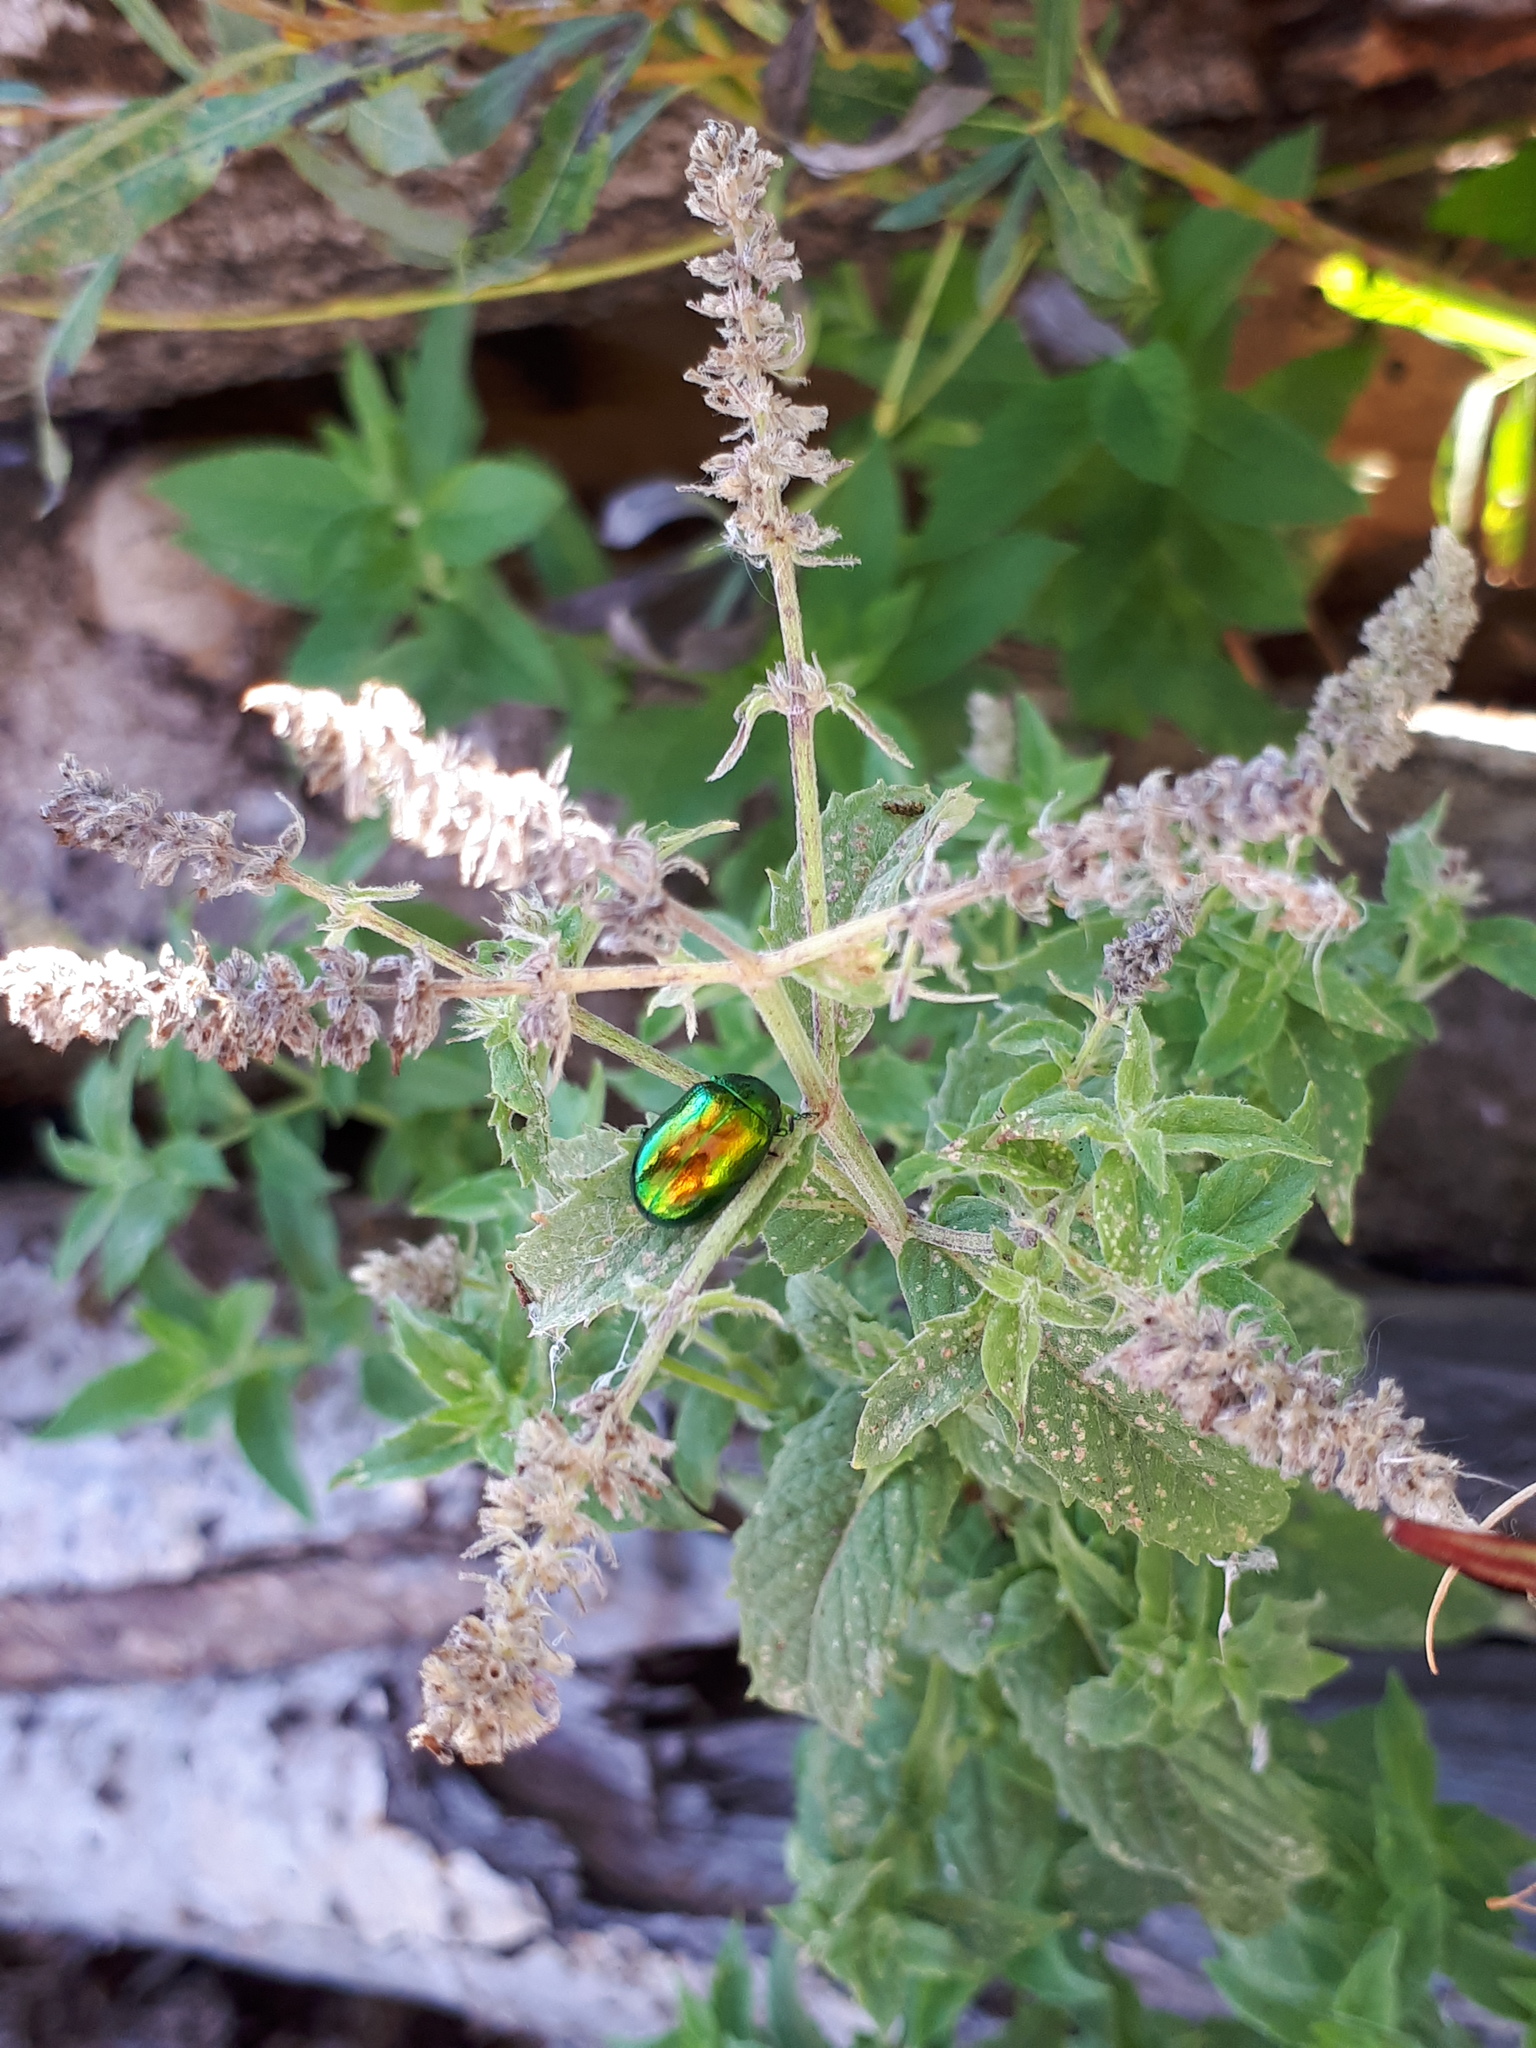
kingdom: Animalia
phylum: Arthropoda
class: Insecta
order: Coleoptera
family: Chrysomelidae
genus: Chrysolina
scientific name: Chrysolina herbacea
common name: Mint leaf beatle
